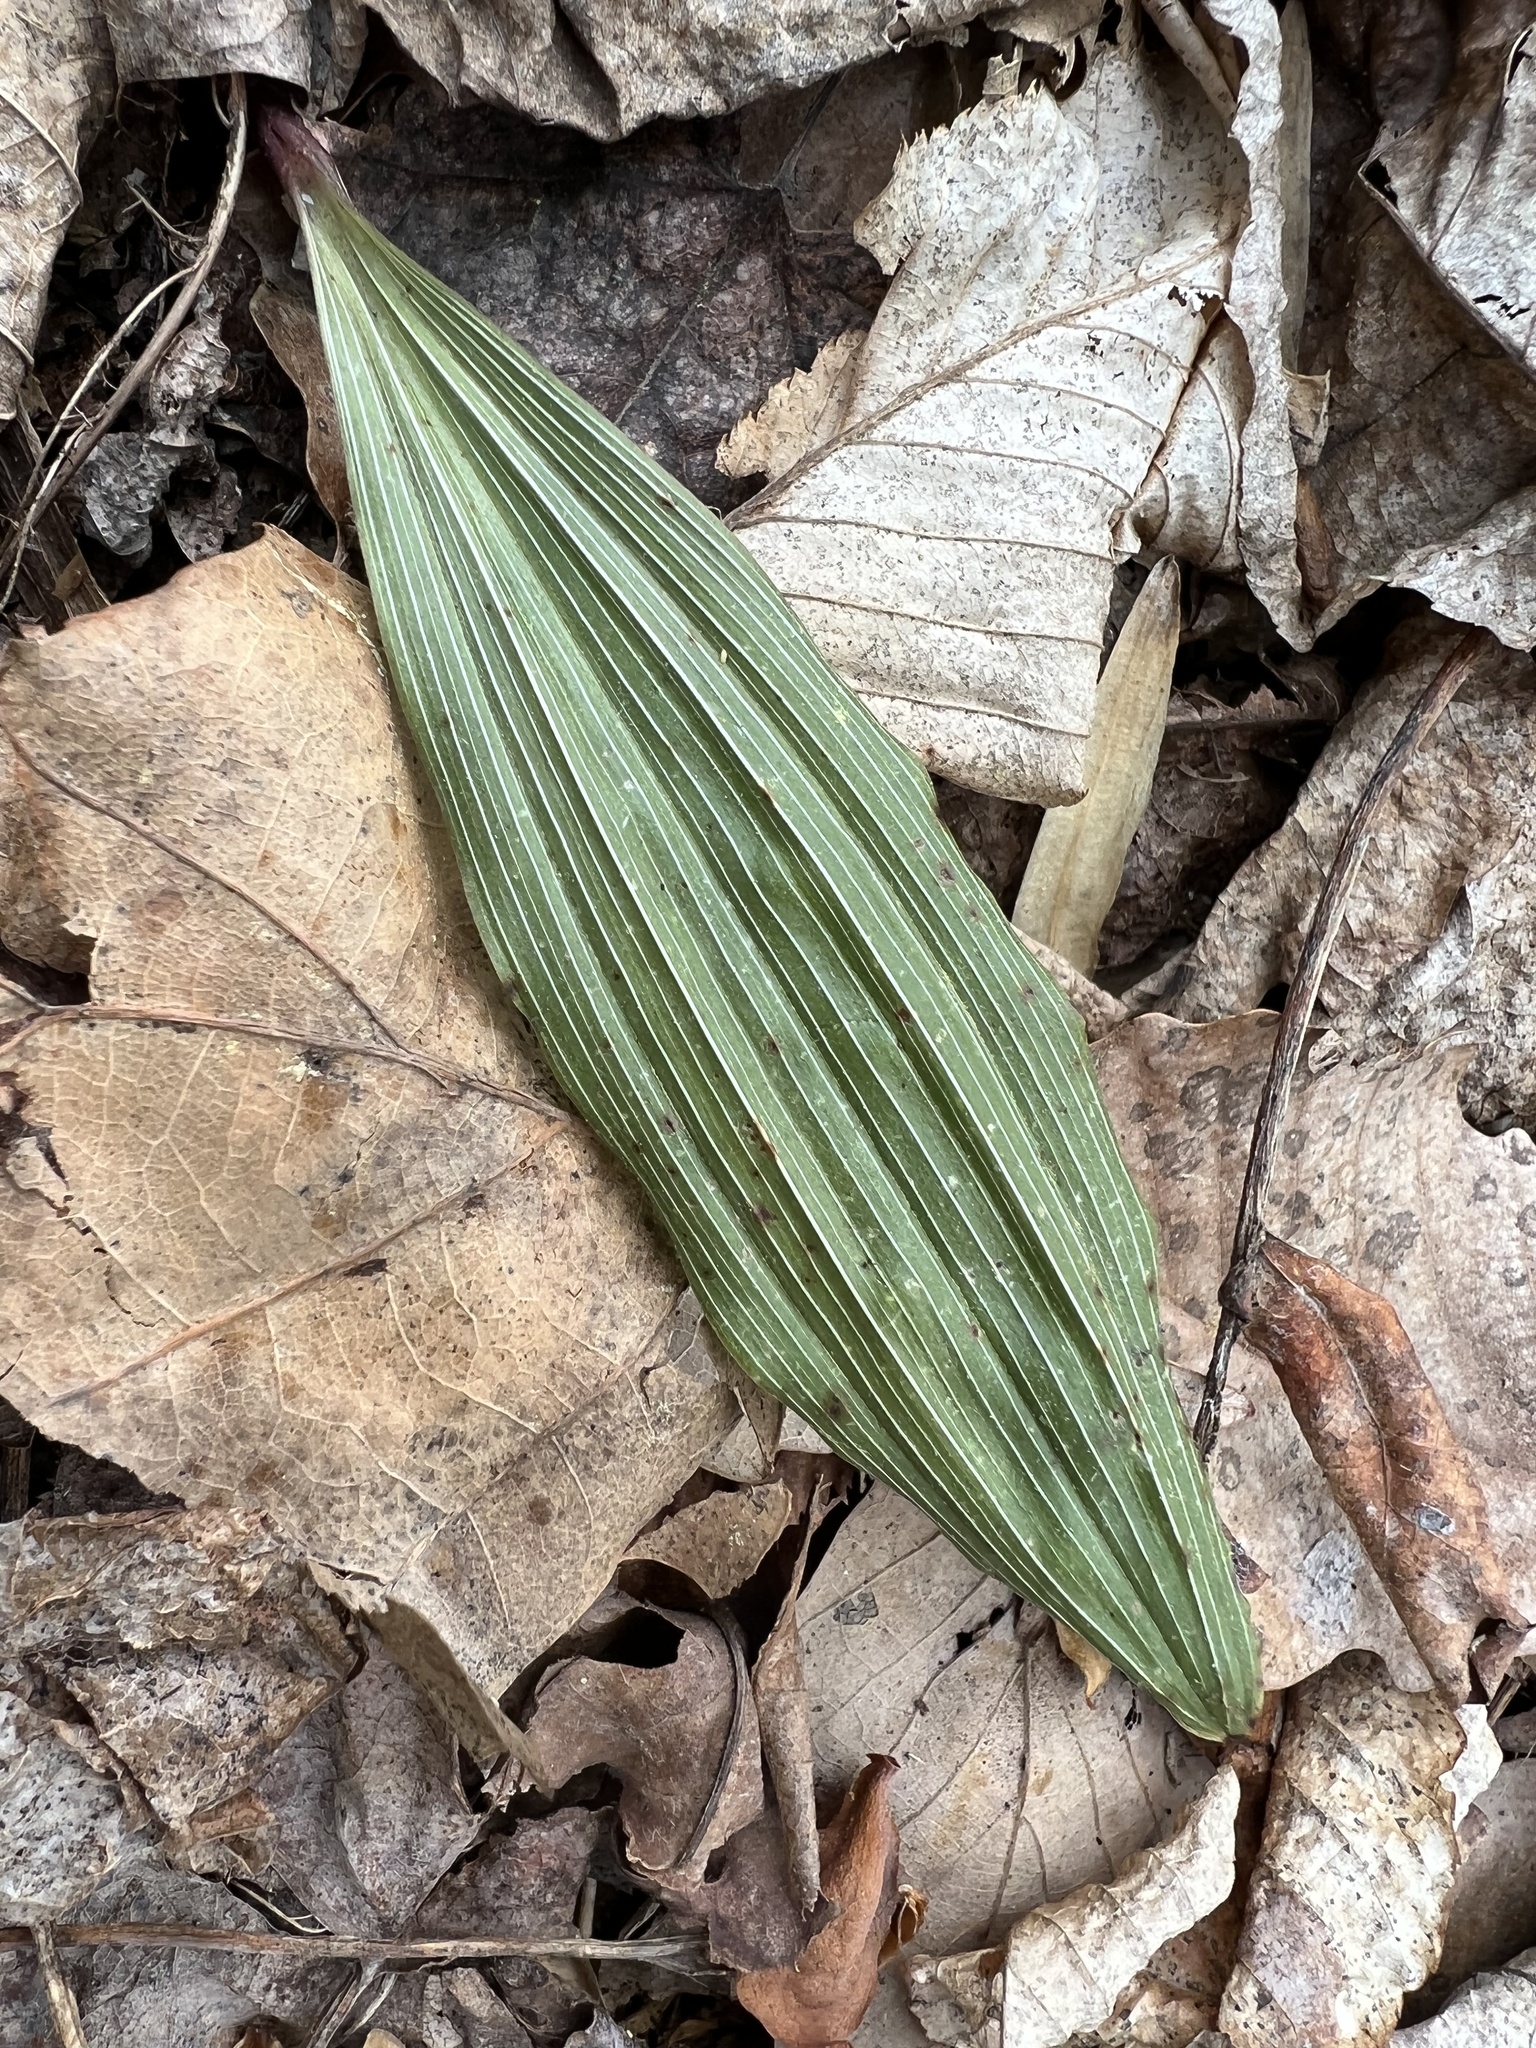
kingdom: Plantae
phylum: Tracheophyta
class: Liliopsida
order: Asparagales
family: Orchidaceae
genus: Aplectrum
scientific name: Aplectrum hyemale
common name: Adam-and-eve
